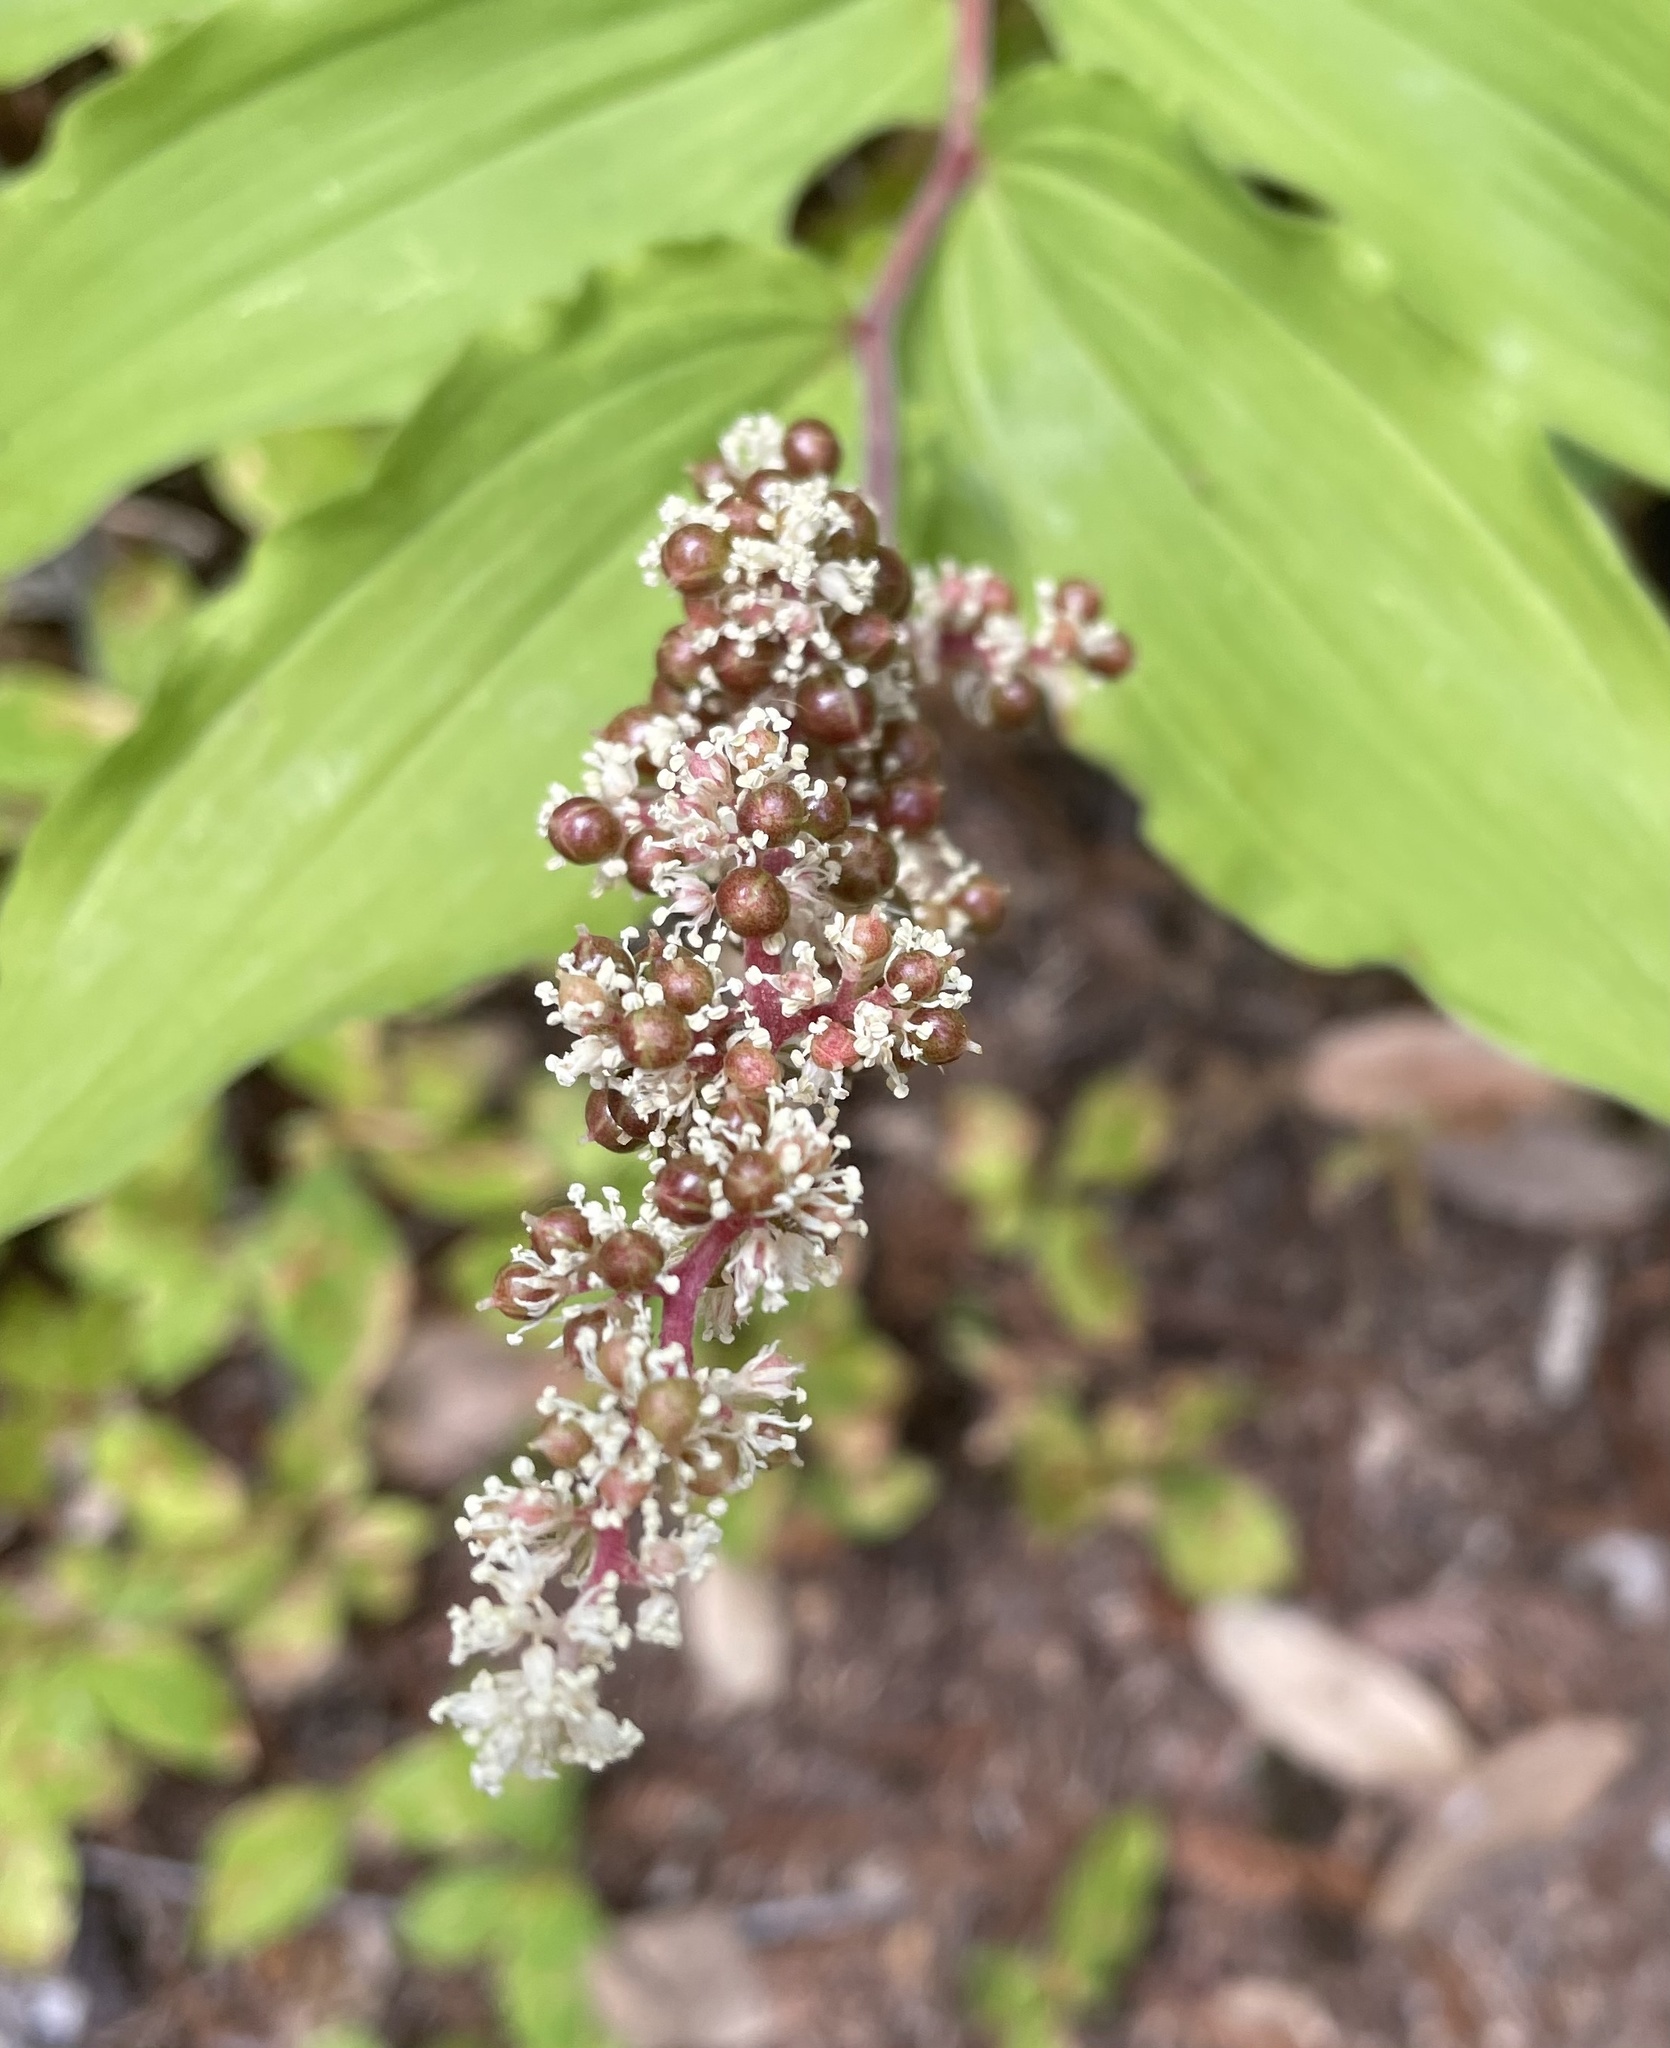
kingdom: Plantae
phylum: Tracheophyta
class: Liliopsida
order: Asparagales
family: Asparagaceae
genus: Maianthemum
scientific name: Maianthemum racemosum
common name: False spikenard
